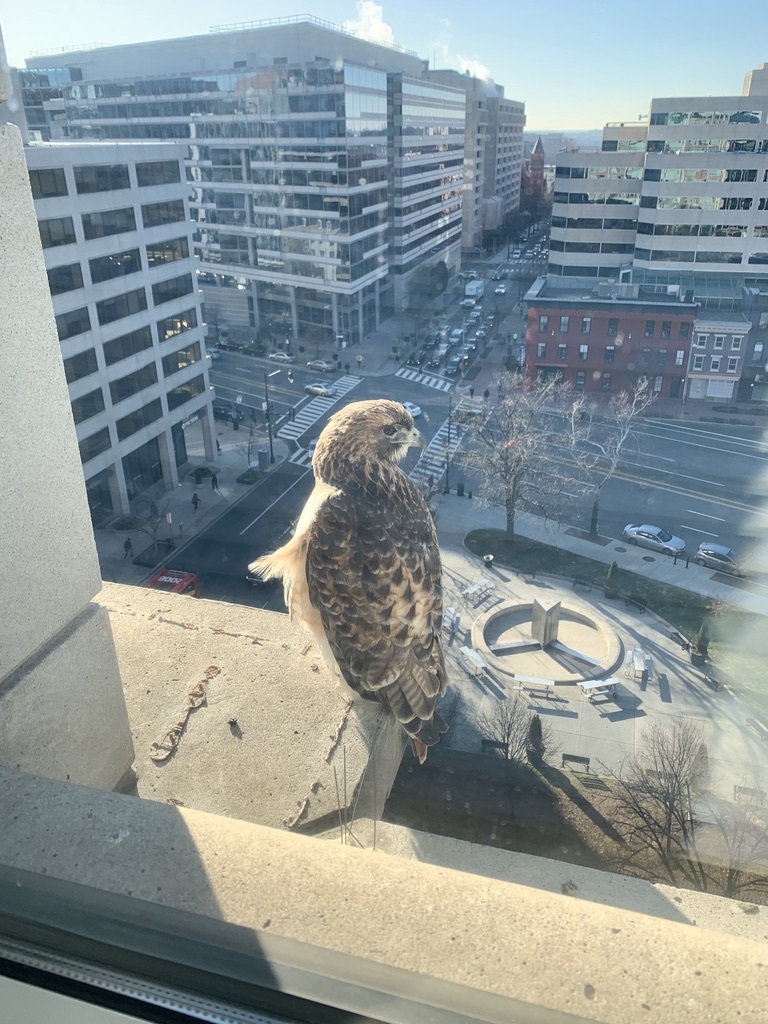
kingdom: Animalia
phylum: Chordata
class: Aves
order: Accipitriformes
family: Accipitridae
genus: Buteo
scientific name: Buteo jamaicensis
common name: Red-tailed hawk
